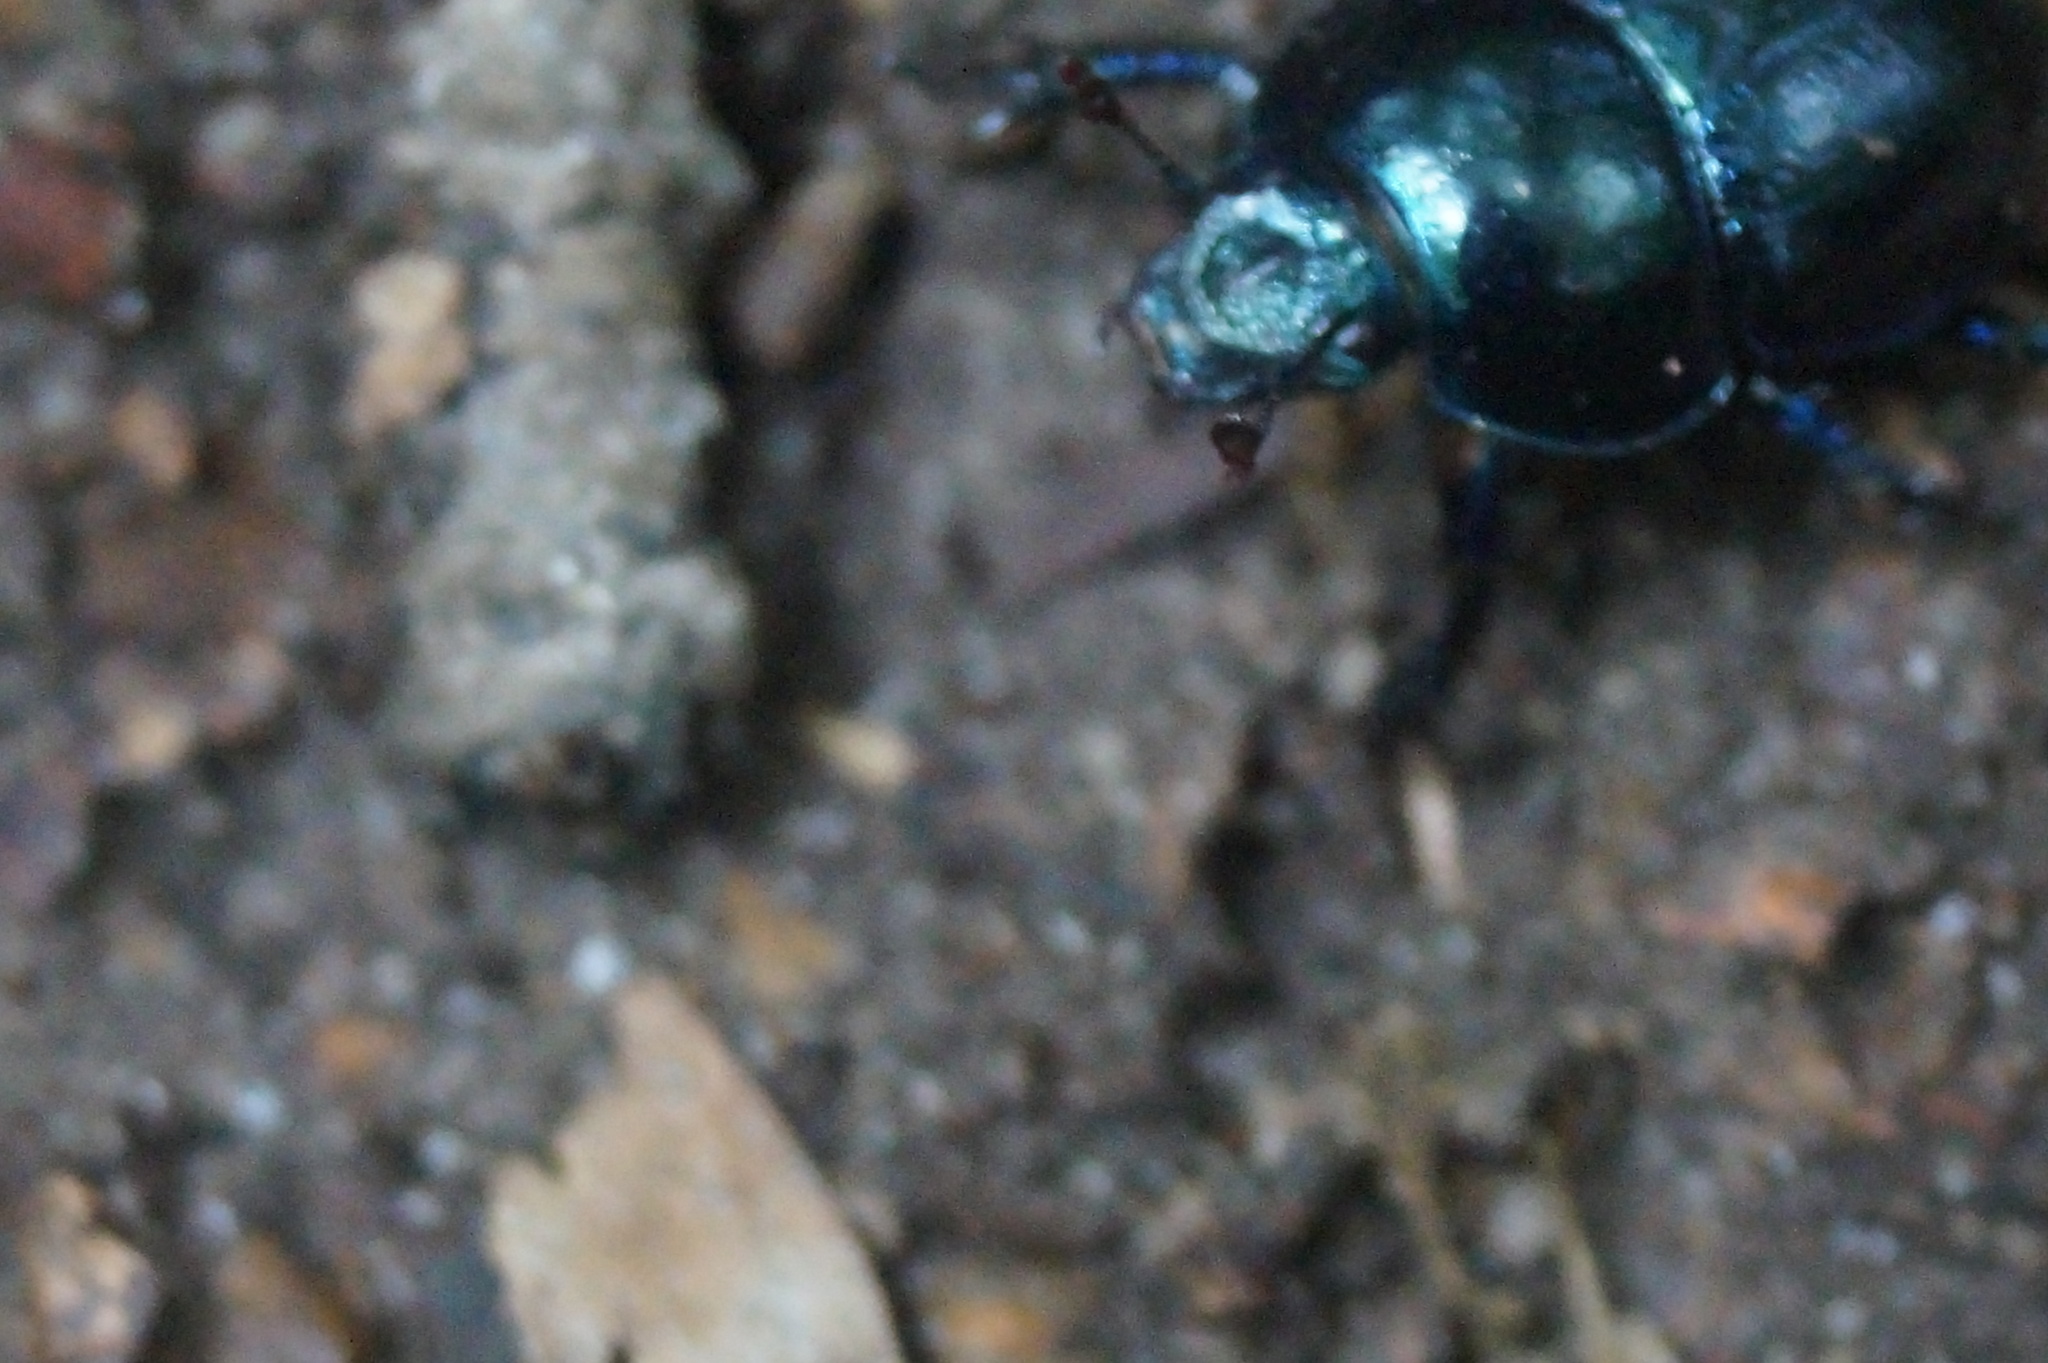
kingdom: Animalia
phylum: Arthropoda
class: Insecta
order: Coleoptera
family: Geotrupidae
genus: Anoplotrupes
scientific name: Anoplotrupes stercorosus
